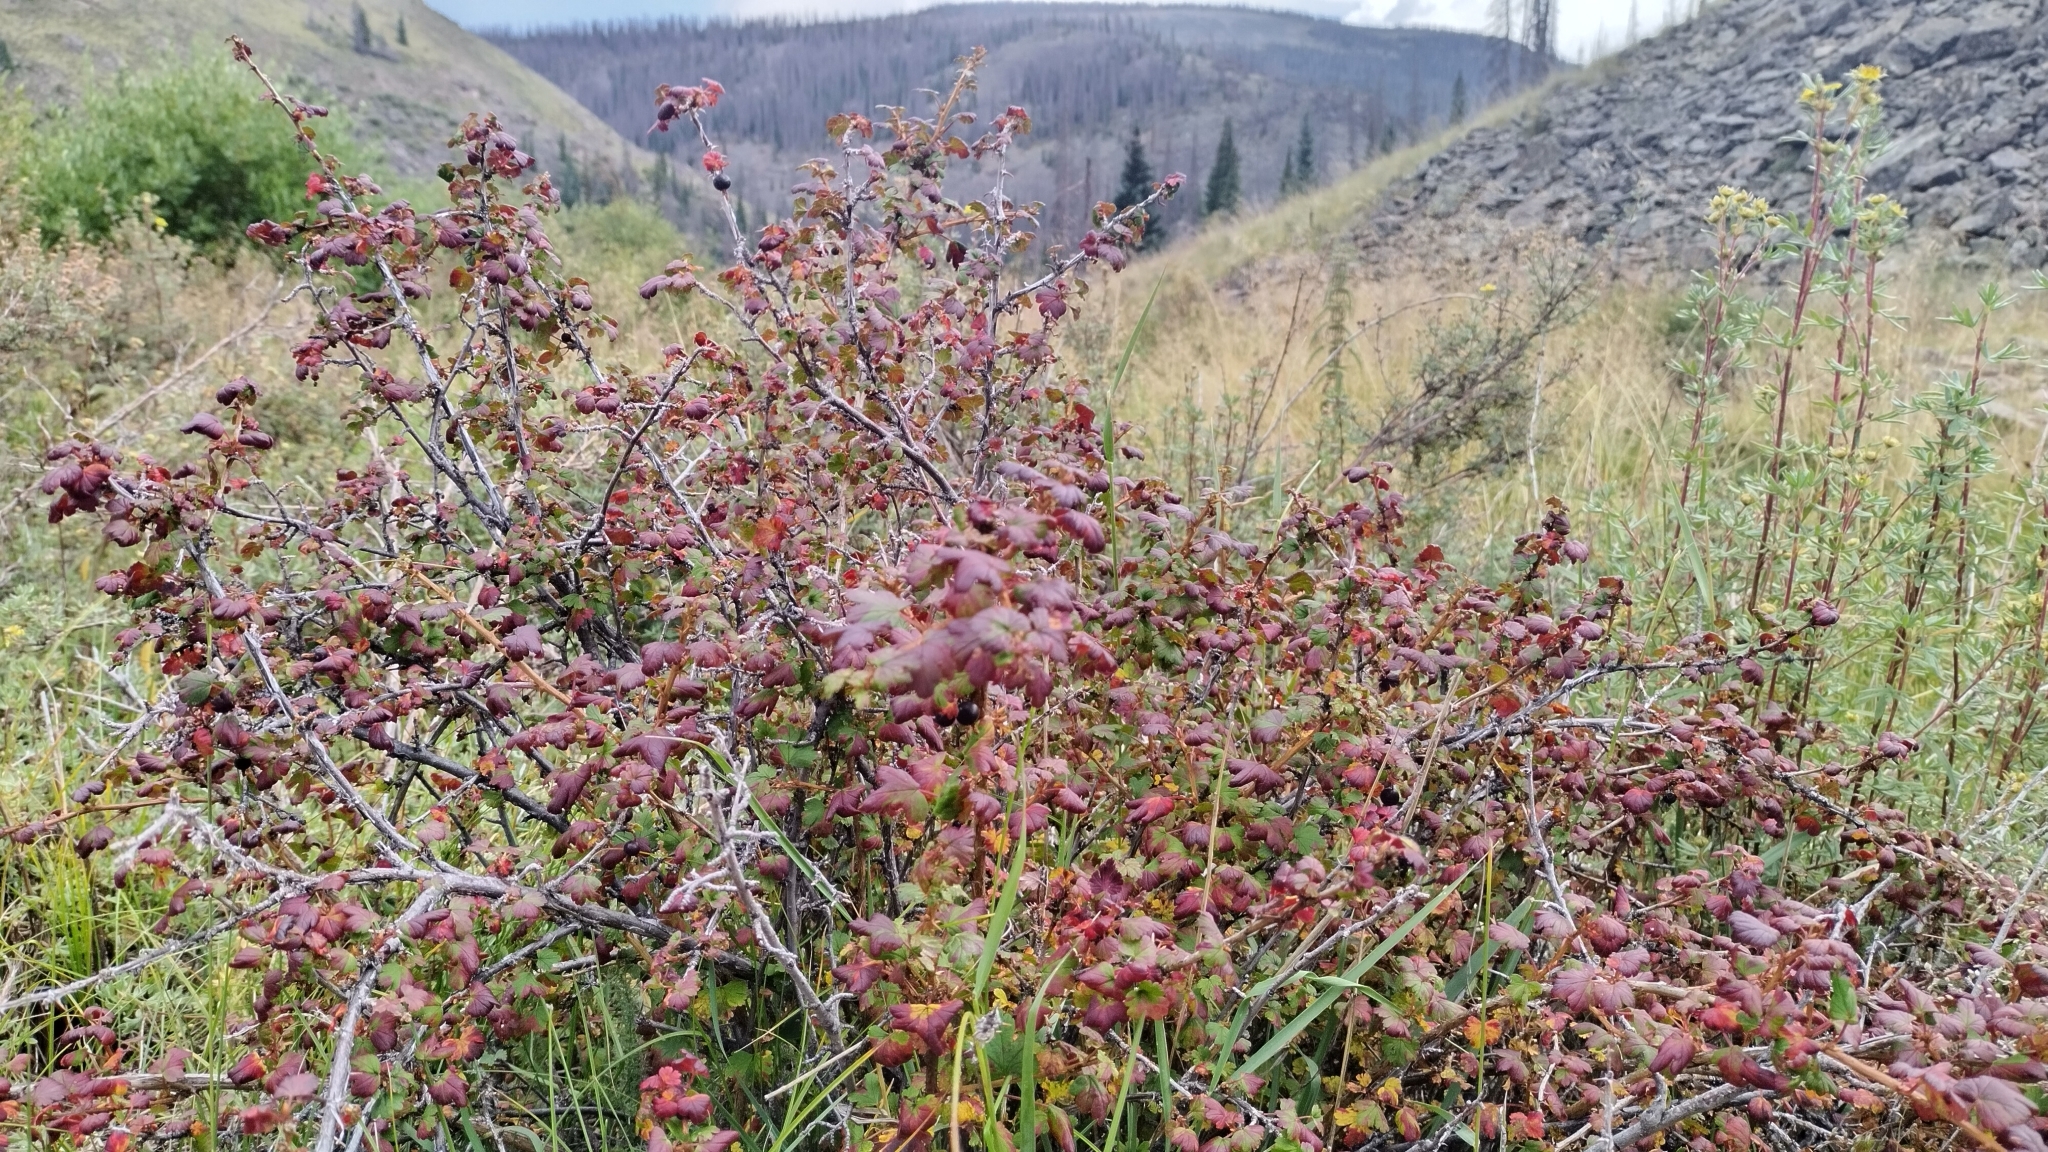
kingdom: Plantae
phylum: Tracheophyta
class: Magnoliopsida
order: Saxifragales
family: Grossulariaceae
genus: Ribes
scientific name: Ribes inerme
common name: White-stem gooseberry
